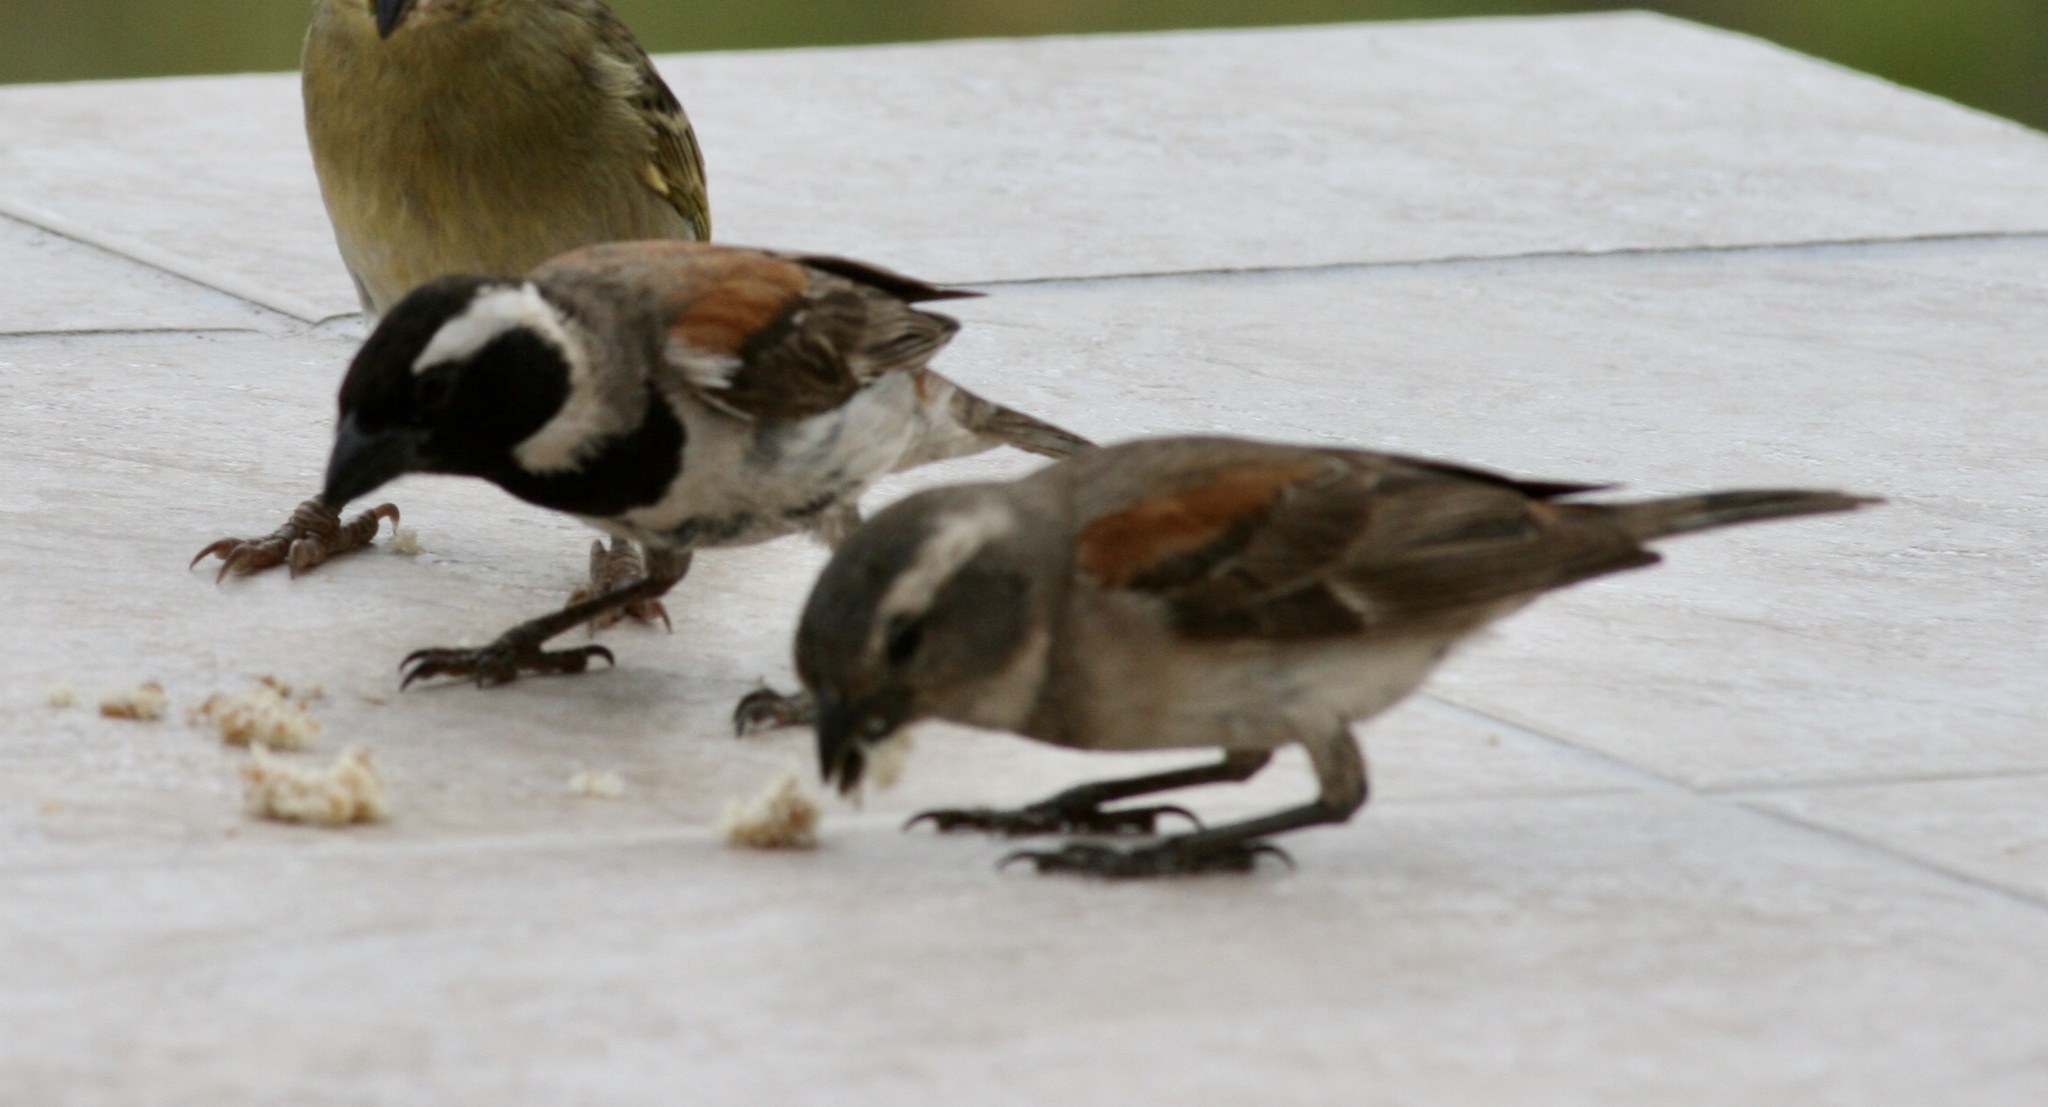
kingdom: Animalia
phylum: Chordata
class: Aves
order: Passeriformes
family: Passeridae
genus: Passer
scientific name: Passer melanurus
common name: Cape sparrow
